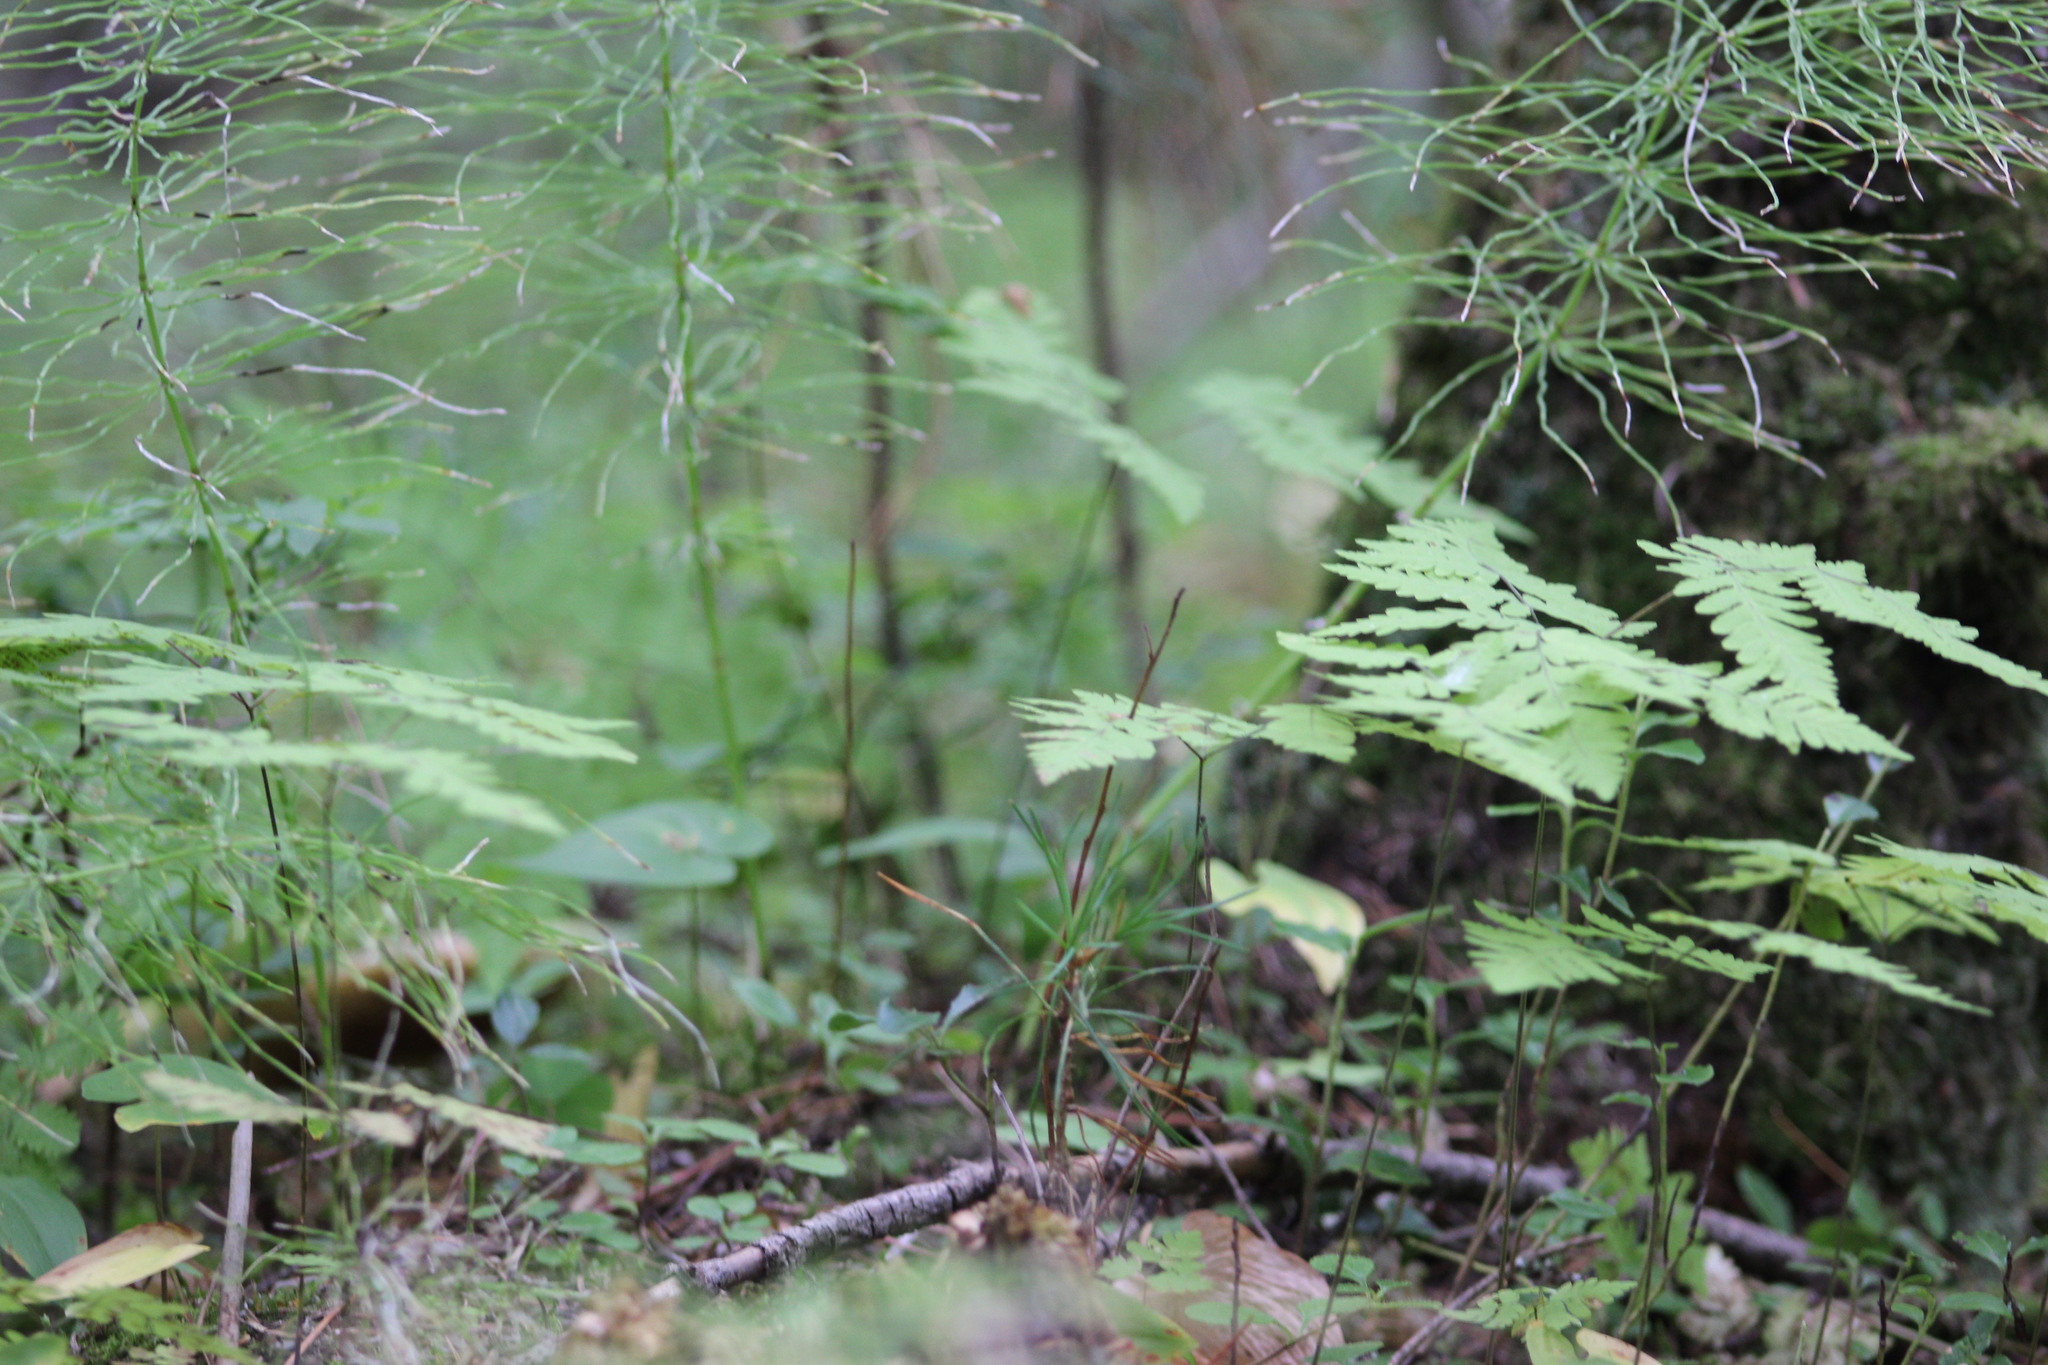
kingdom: Plantae
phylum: Tracheophyta
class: Polypodiopsida
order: Polypodiales
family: Cystopteridaceae
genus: Gymnocarpium
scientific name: Gymnocarpium dryopteris
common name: Oak fern
